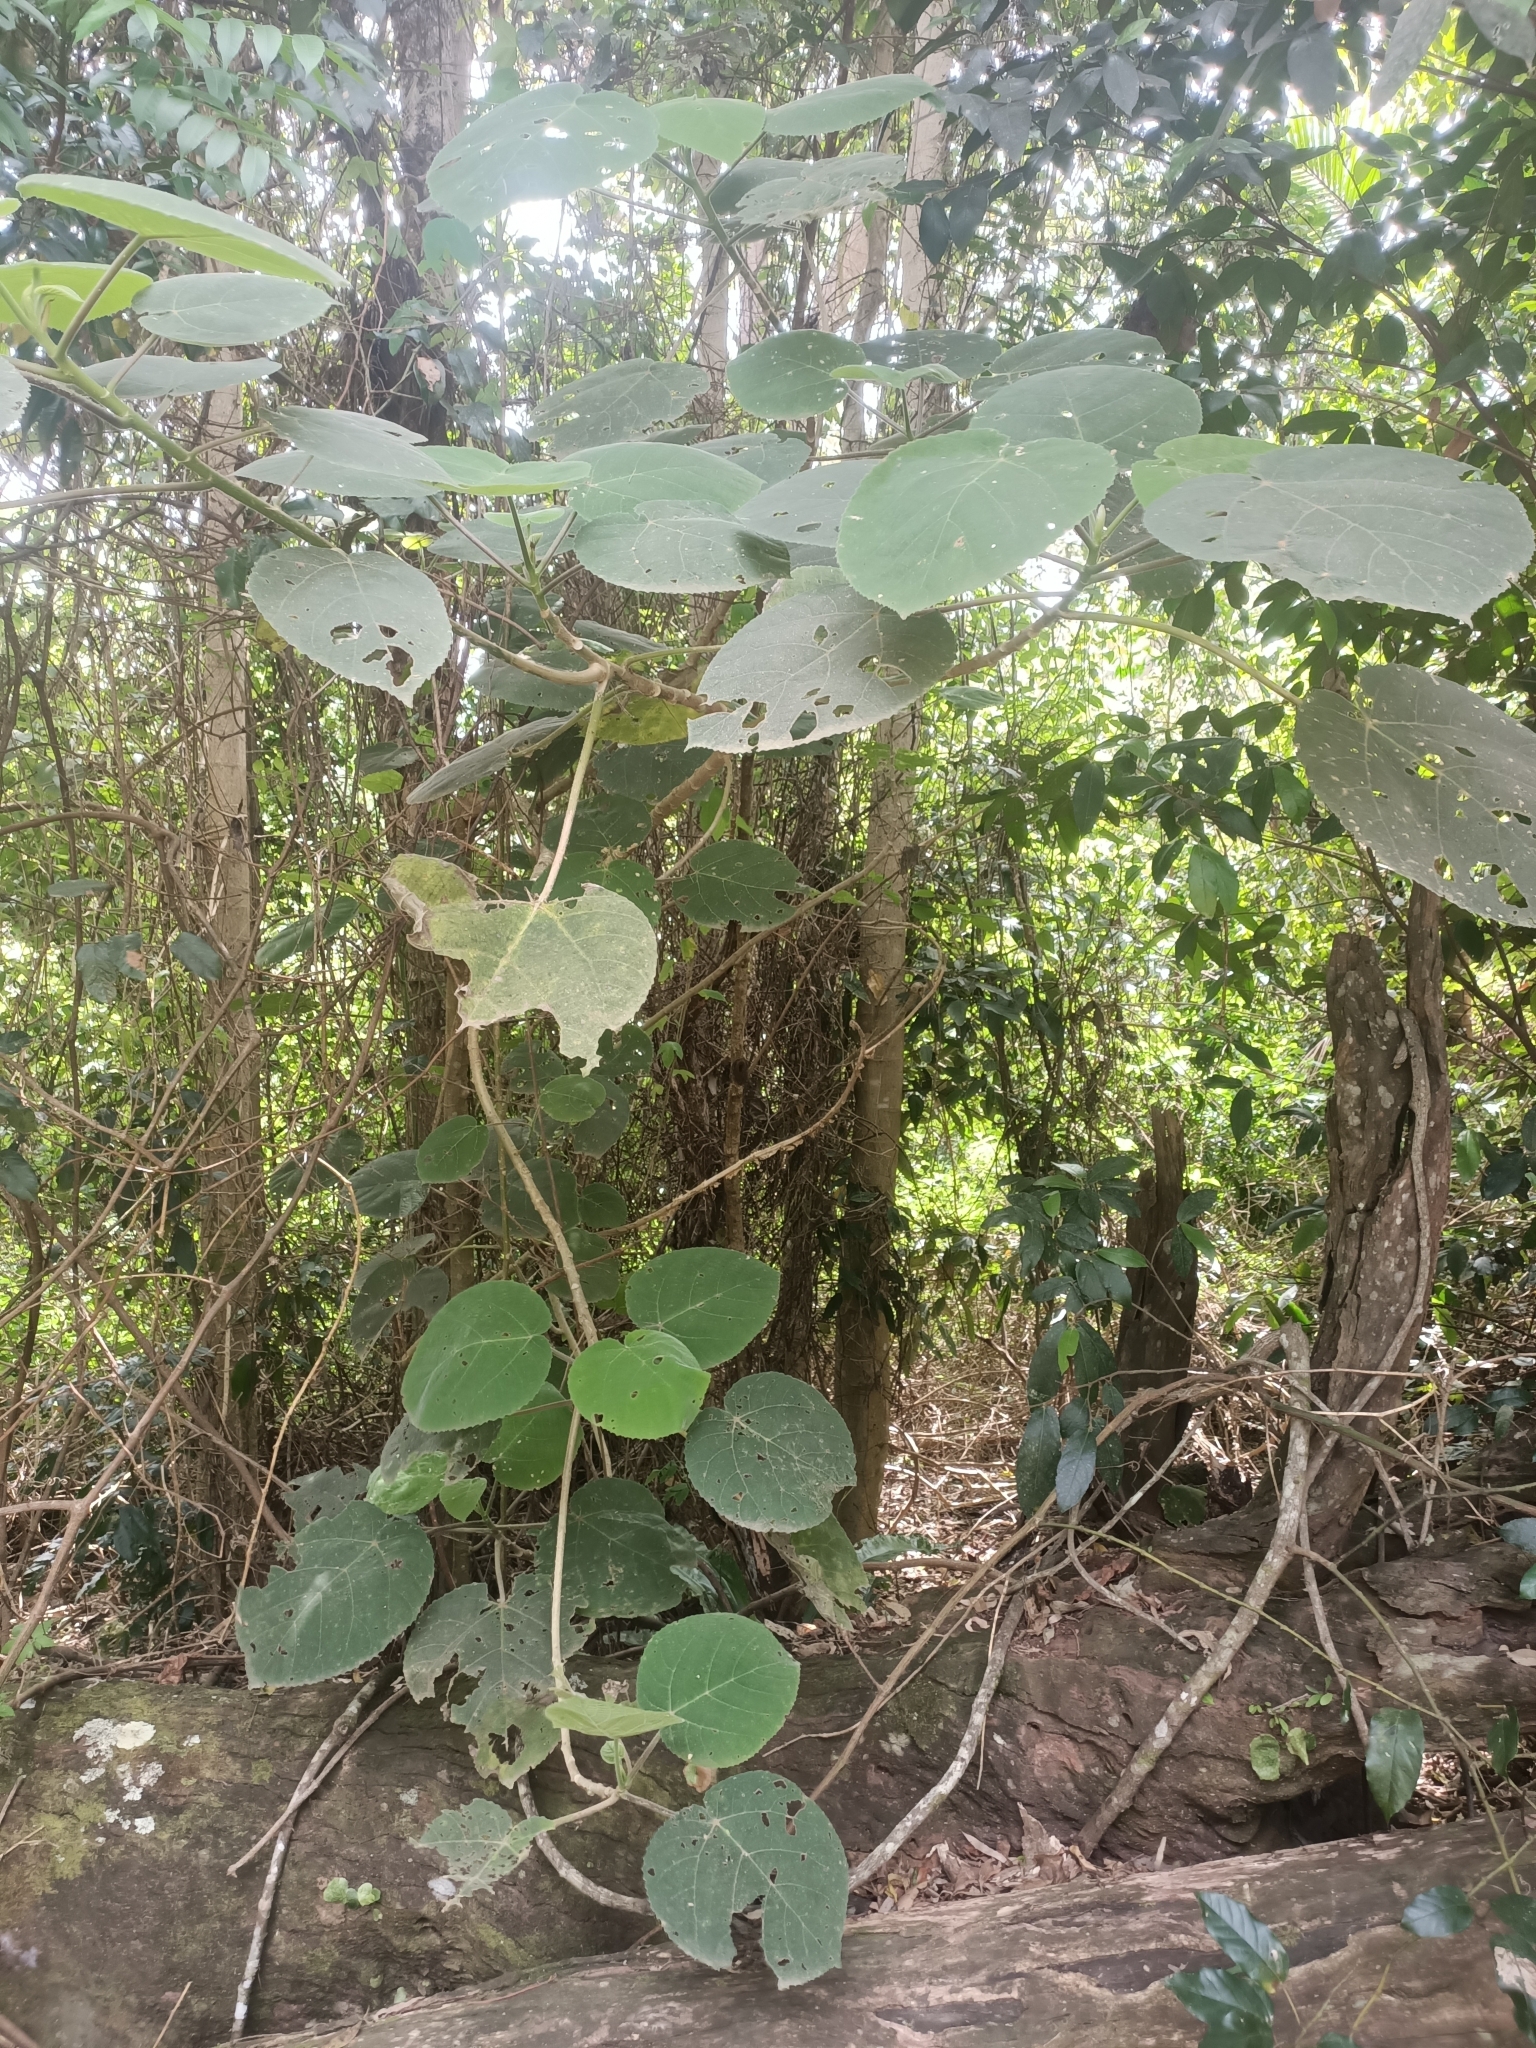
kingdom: Plantae
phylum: Tracheophyta
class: Magnoliopsida
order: Rosales
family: Urticaceae
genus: Dendrocnide
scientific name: Dendrocnide excelsa
